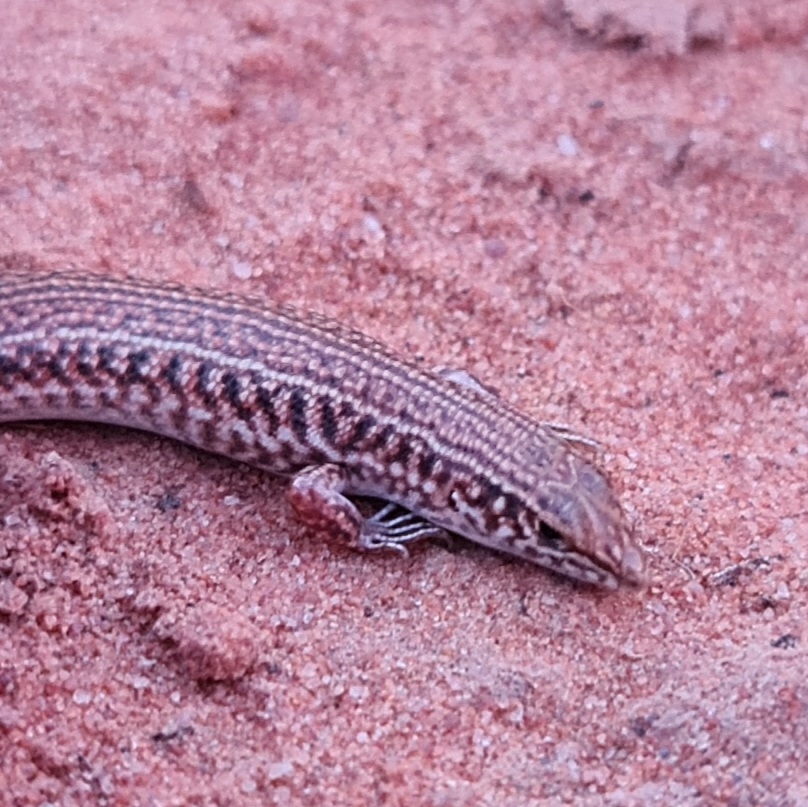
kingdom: Animalia
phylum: Chordata
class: Squamata
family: Scincidae
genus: Ctenotus
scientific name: Ctenotus taeniatus
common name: Eyrean ctenotus
